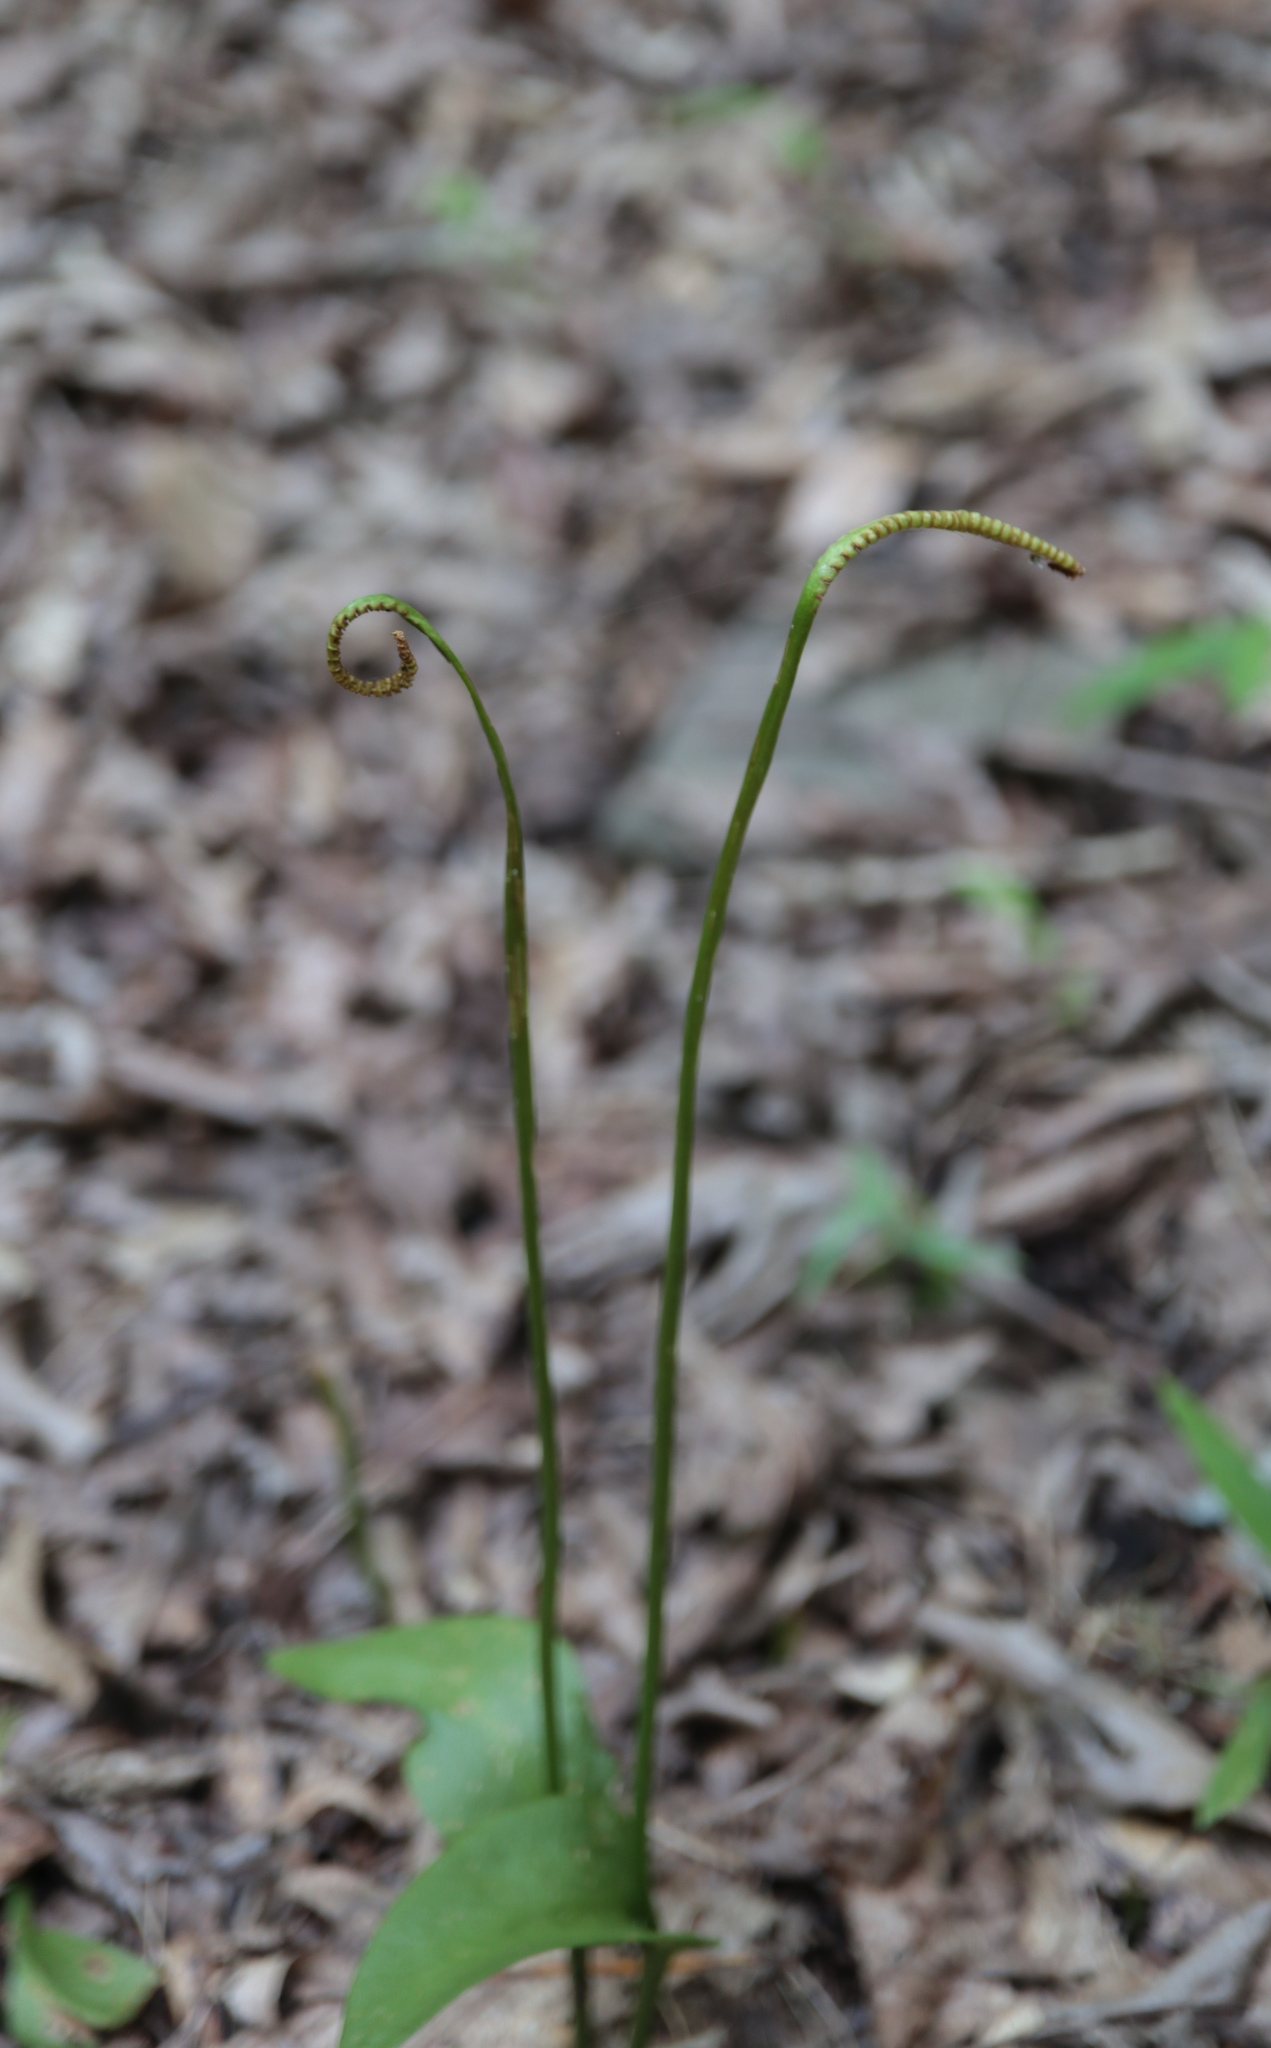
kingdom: Plantae
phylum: Tracheophyta
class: Polypodiopsida
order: Ophioglossales
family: Ophioglossaceae
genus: Ophioglossum
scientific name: Ophioglossum vulgatum
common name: Adder's-tongue
